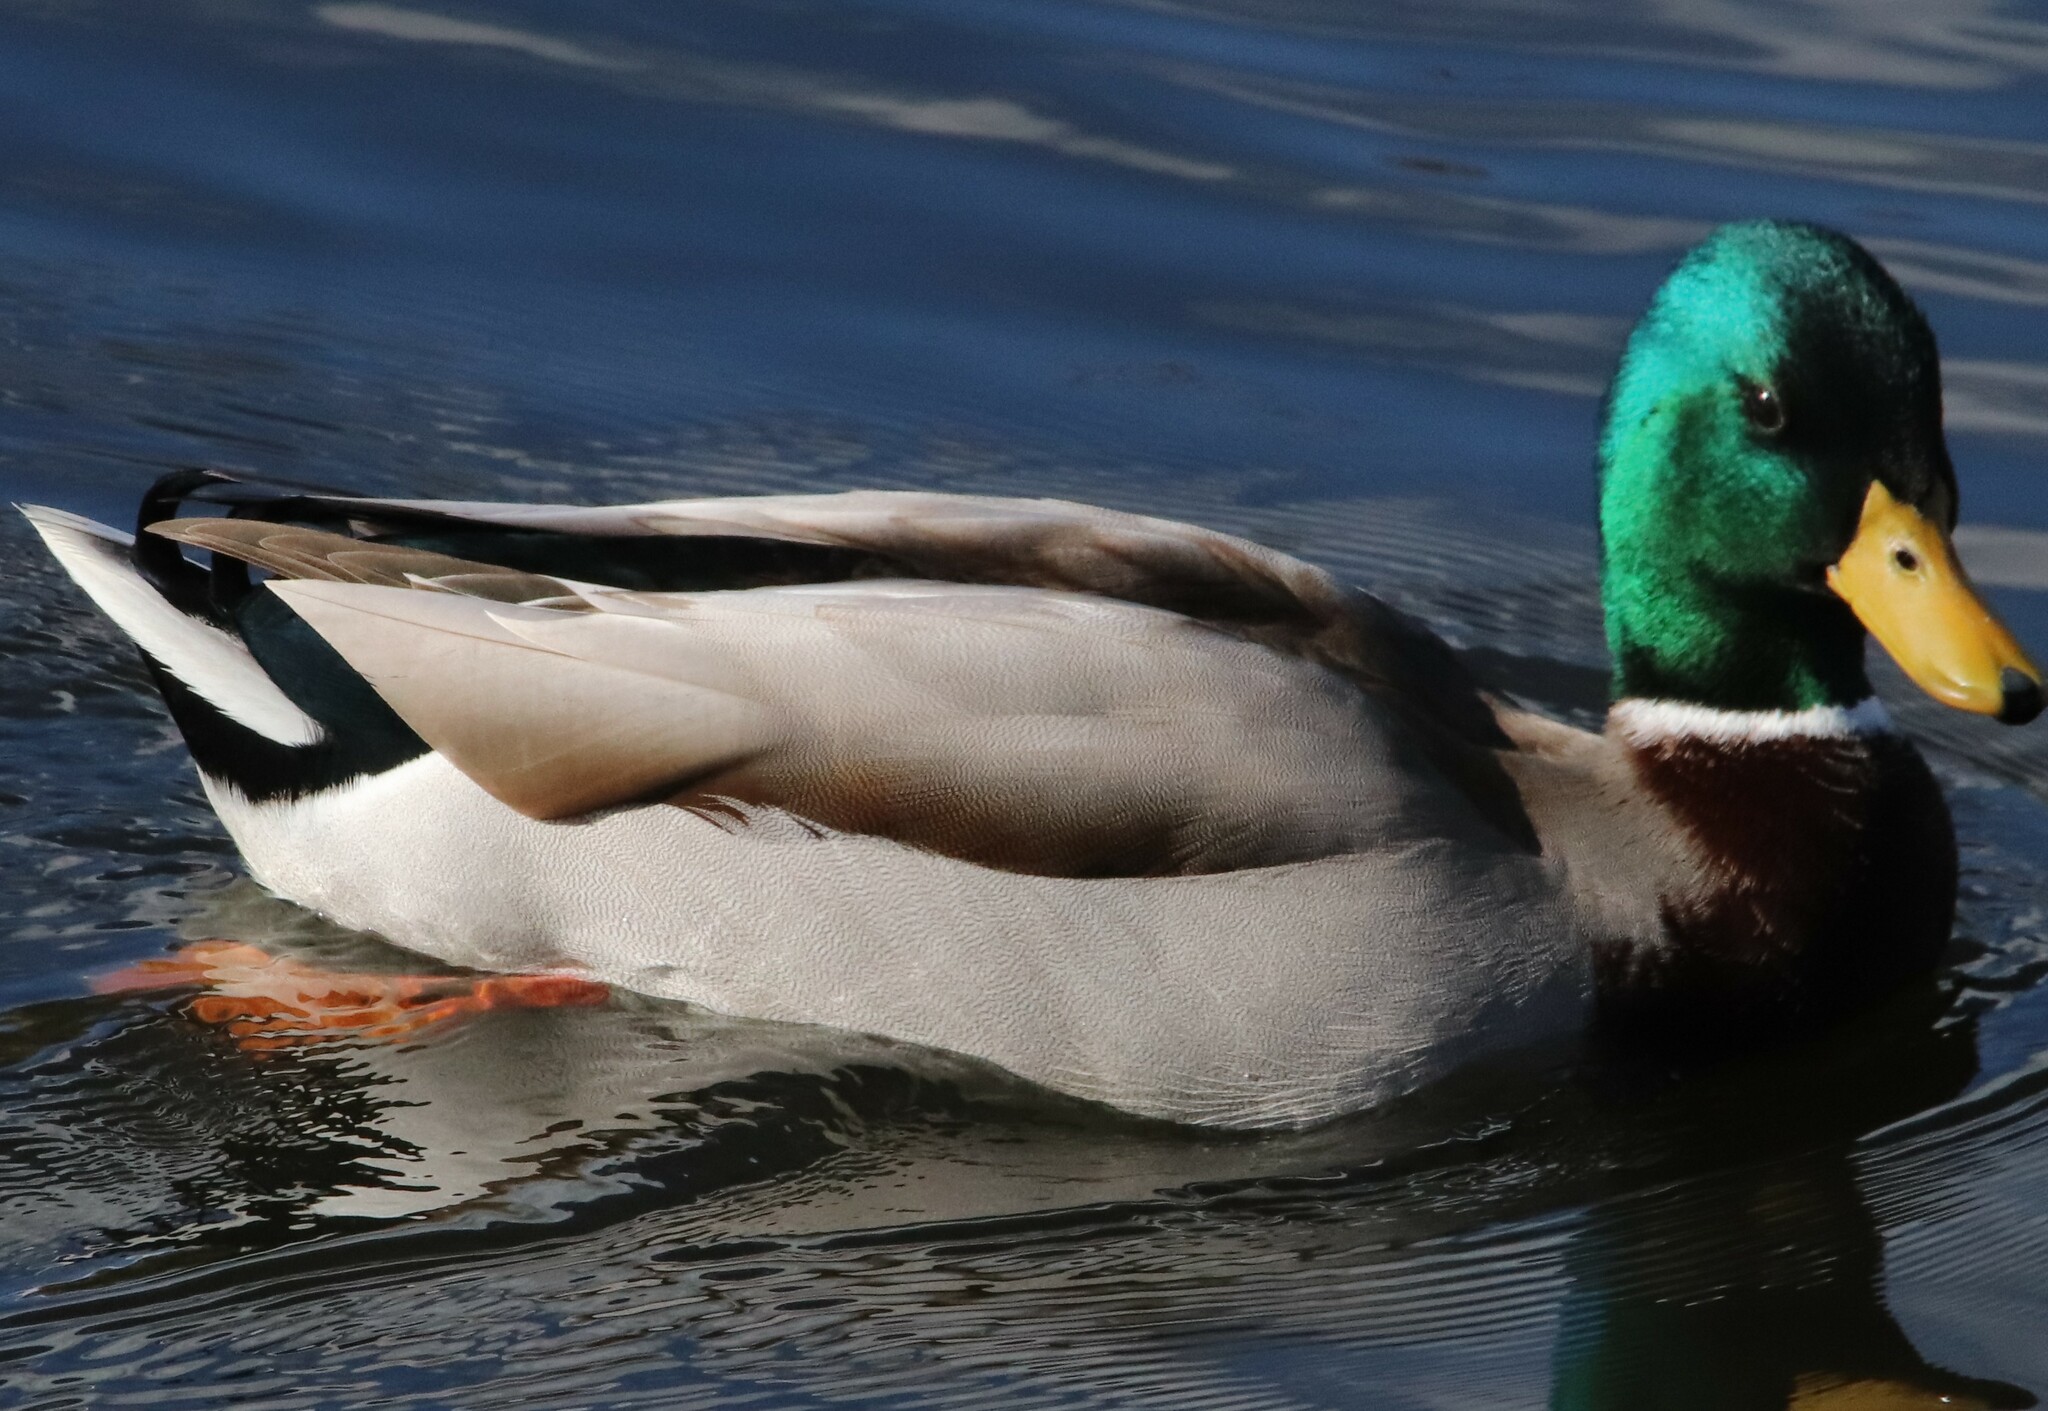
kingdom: Animalia
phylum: Chordata
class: Aves
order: Anseriformes
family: Anatidae
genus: Anas
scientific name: Anas platyrhynchos
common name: Mallard
